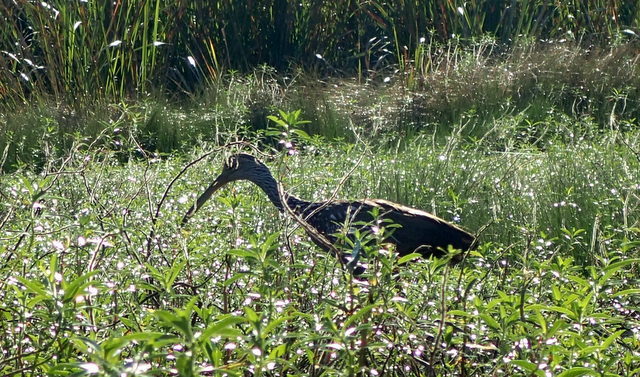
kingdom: Animalia
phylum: Chordata
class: Aves
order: Gruiformes
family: Aramidae
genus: Aramus
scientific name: Aramus guarauna
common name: Limpkin
